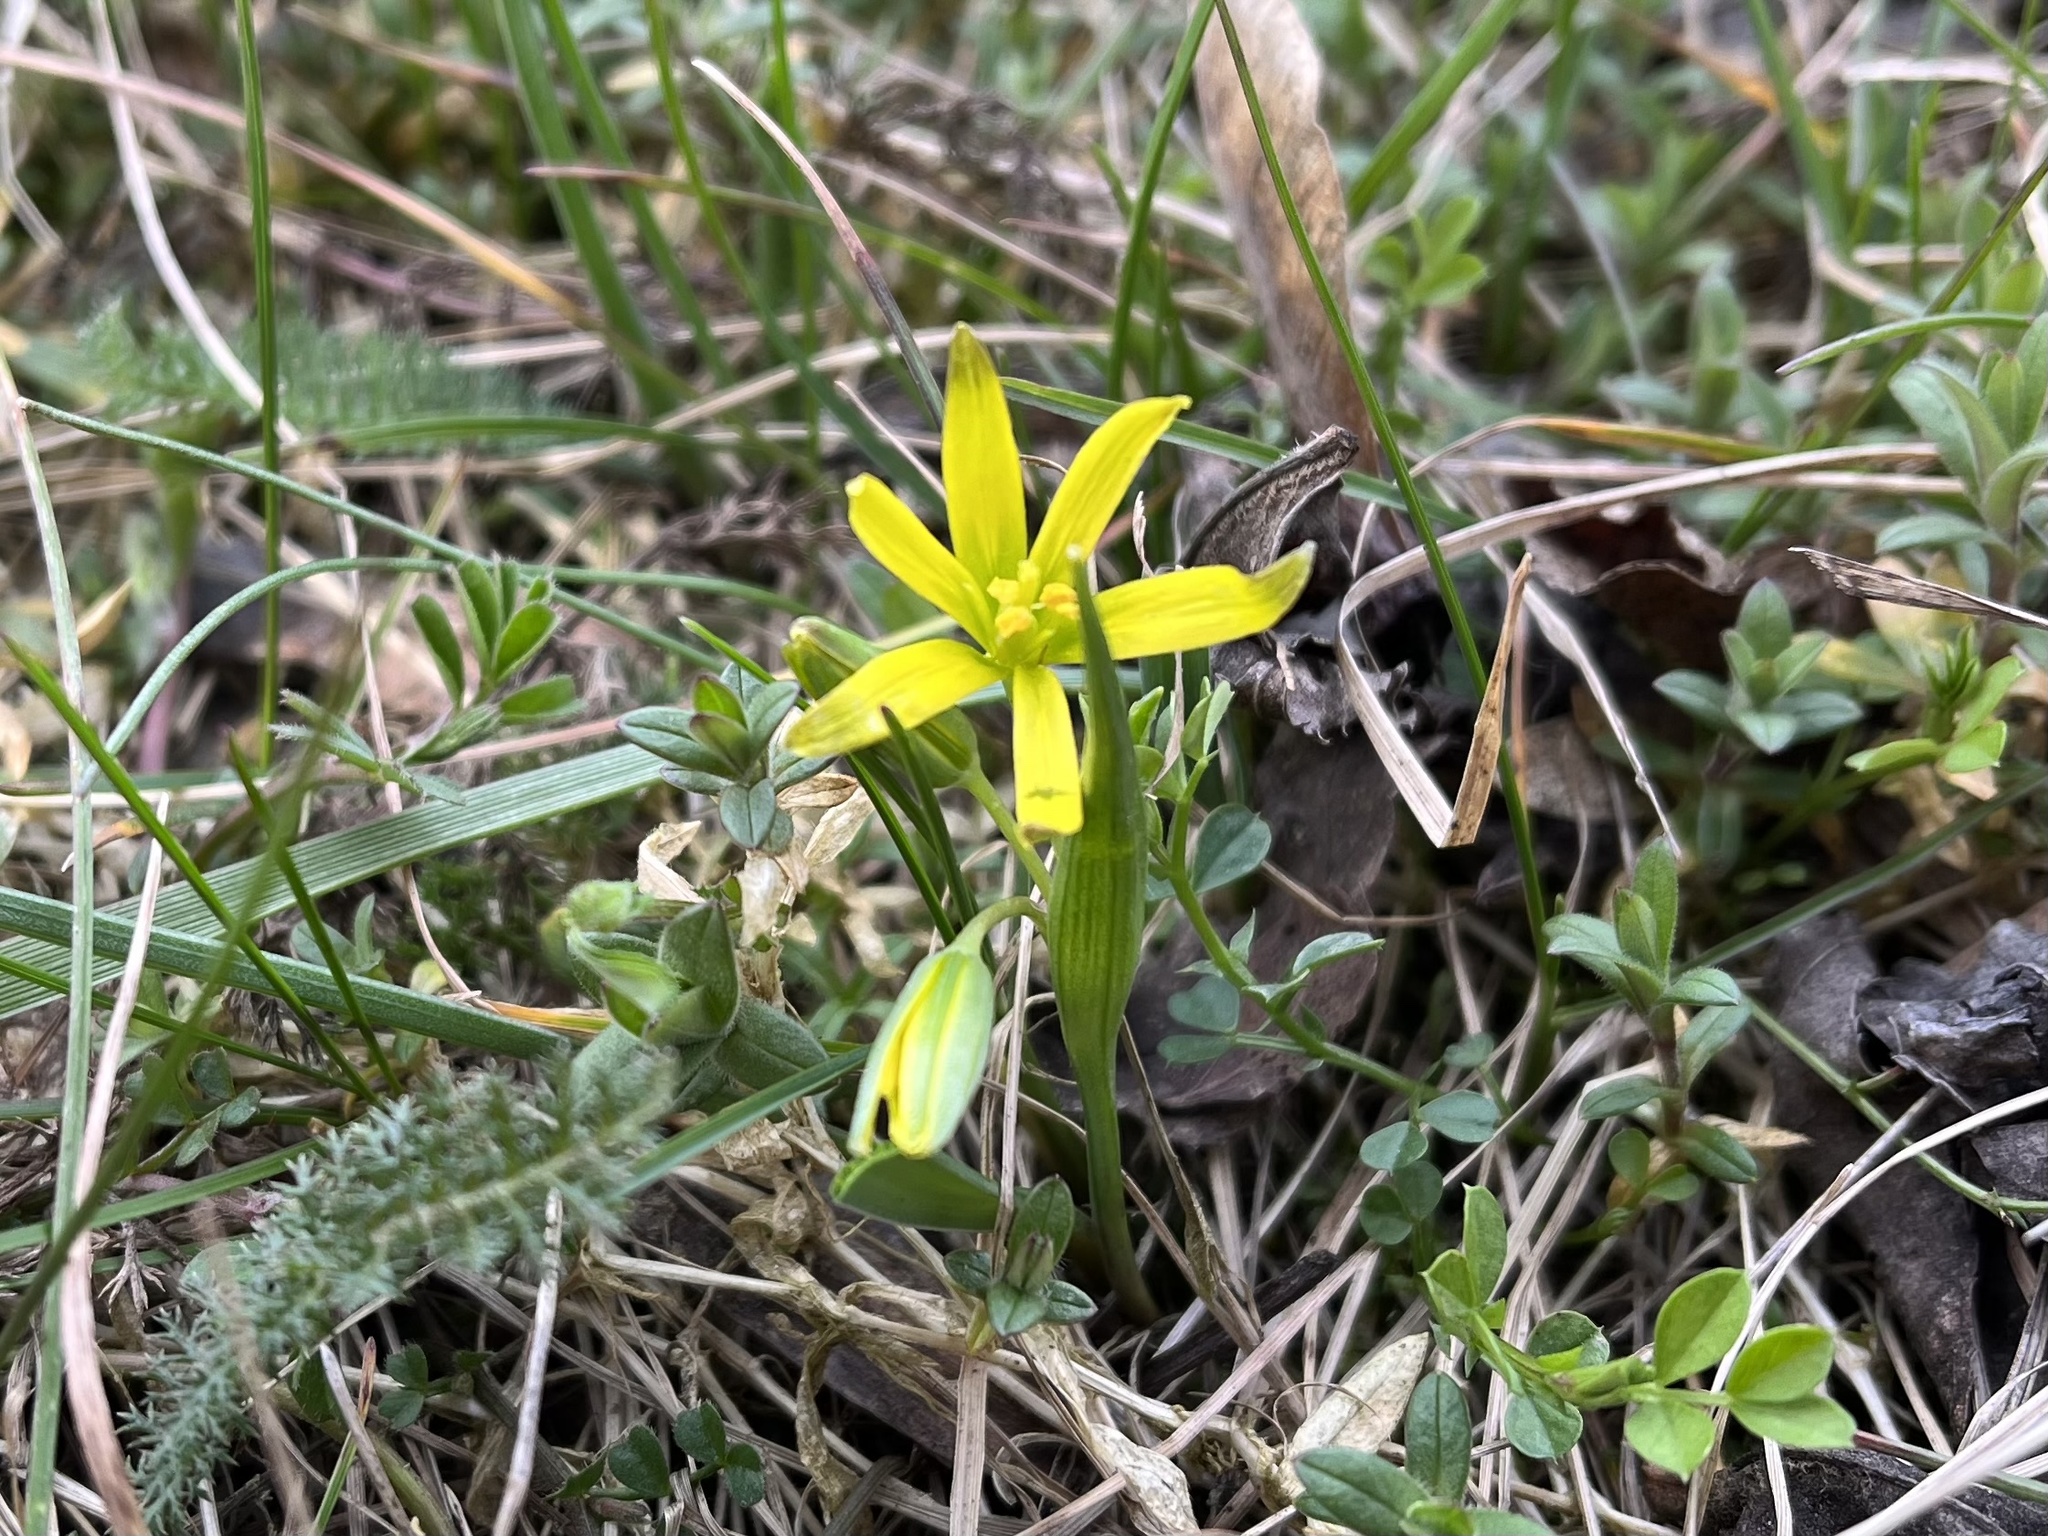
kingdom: Plantae
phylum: Tracheophyta
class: Liliopsida
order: Liliales
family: Liliaceae
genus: Gagea
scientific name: Gagea lutea
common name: Yellow star-of-bethlehem
